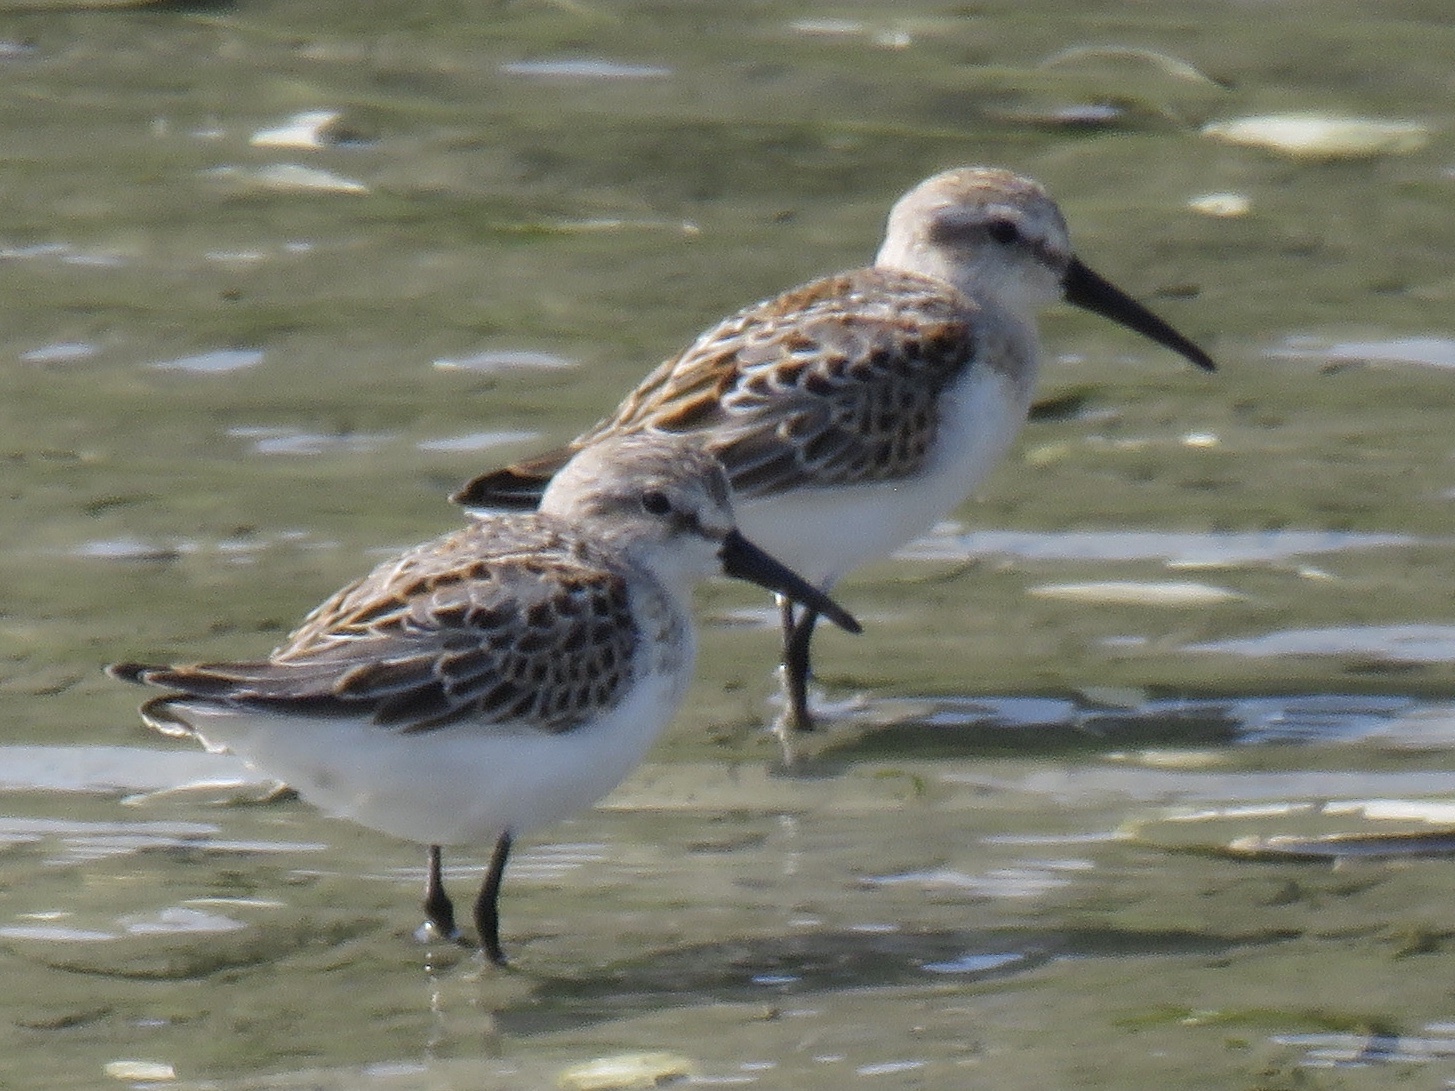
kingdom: Animalia
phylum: Chordata
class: Aves
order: Charadriiformes
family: Scolopacidae
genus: Calidris
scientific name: Calidris mauri
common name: Western sandpiper
